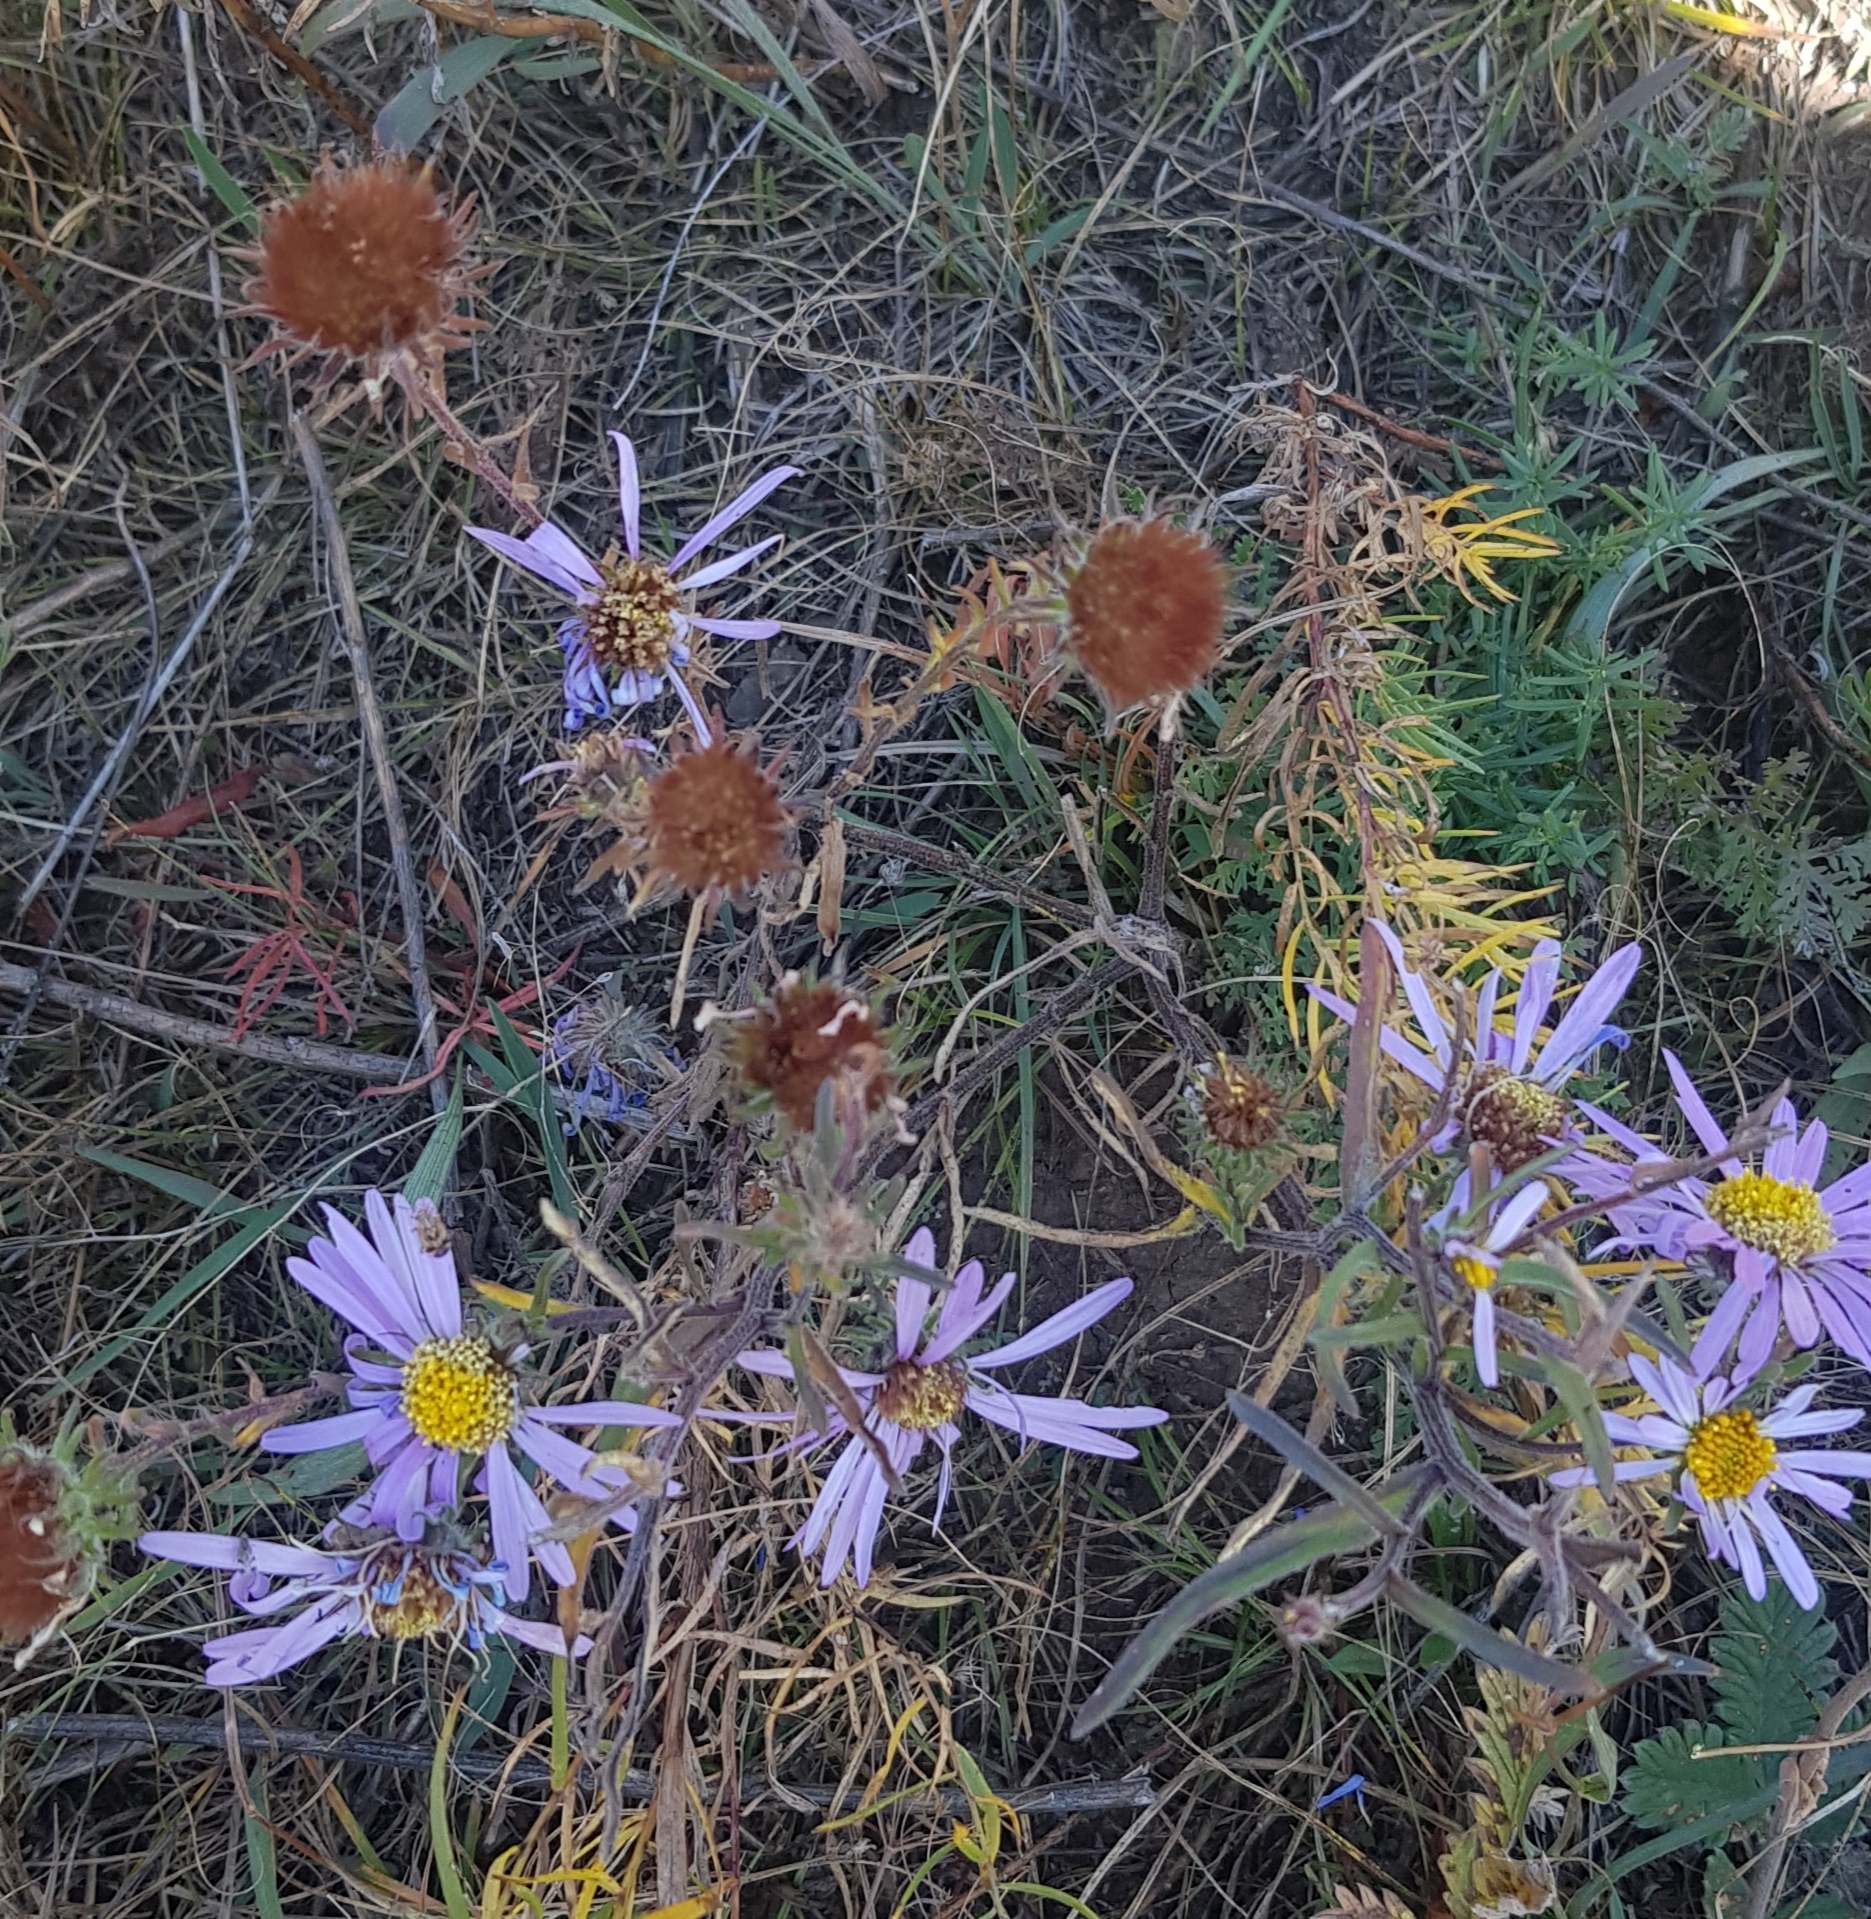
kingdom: Plantae
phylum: Tracheophyta
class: Magnoliopsida
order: Asterales
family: Asteraceae
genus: Aster
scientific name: Aster biennis
